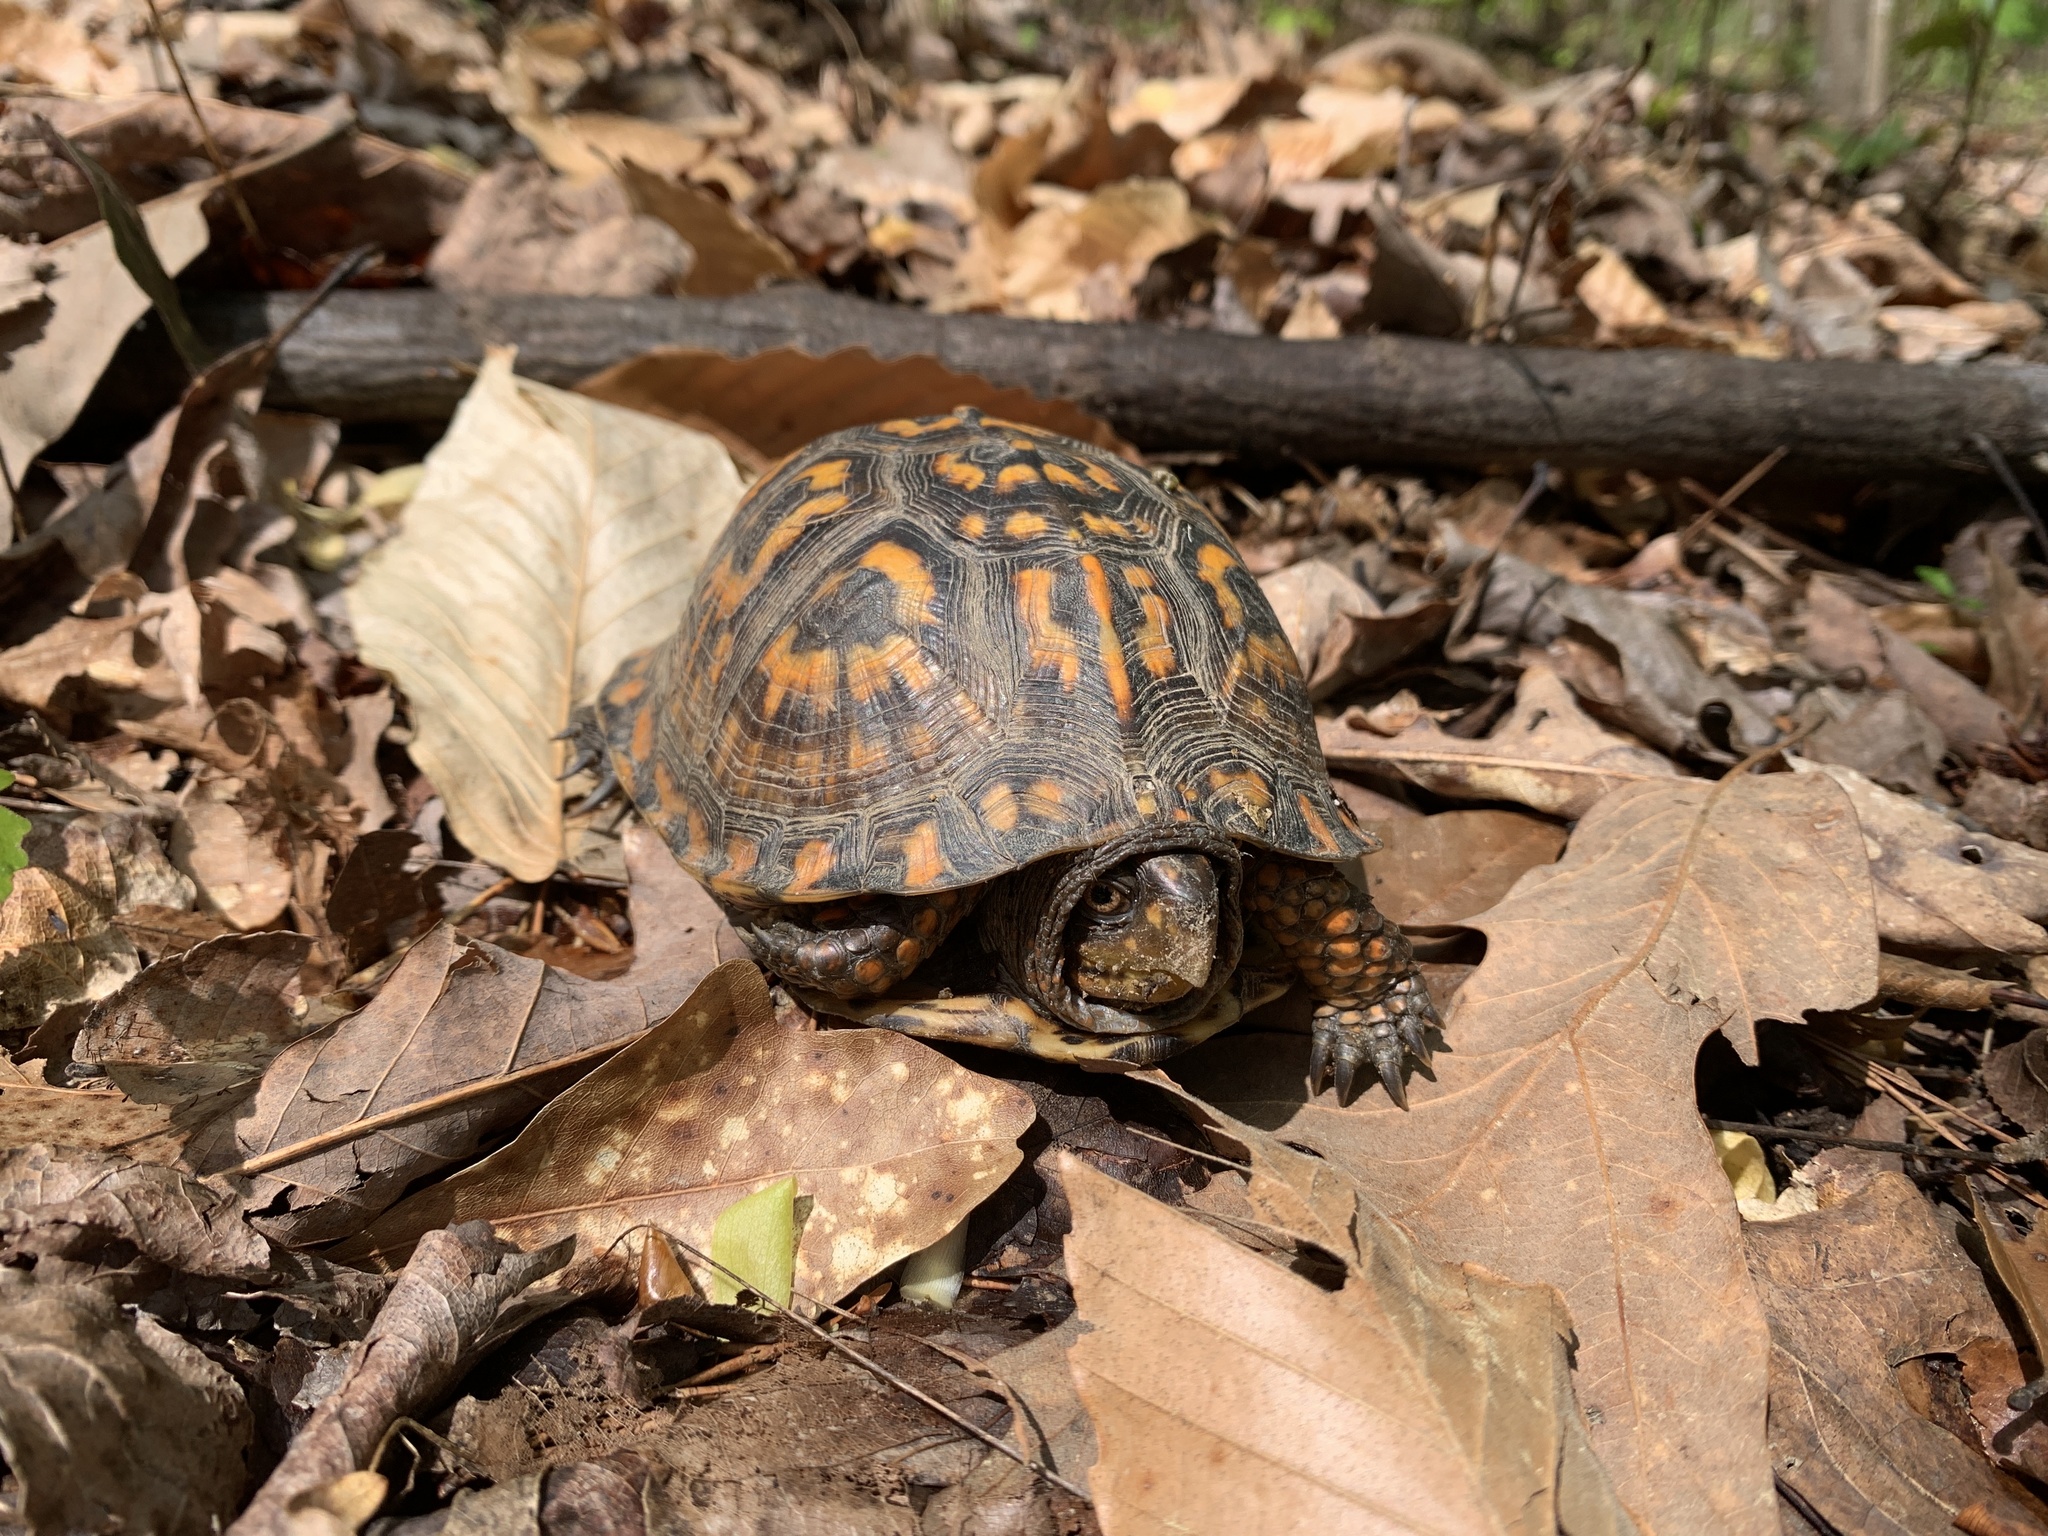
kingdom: Animalia
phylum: Chordata
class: Testudines
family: Emydidae
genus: Terrapene
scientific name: Terrapene carolina
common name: Common box turtle
